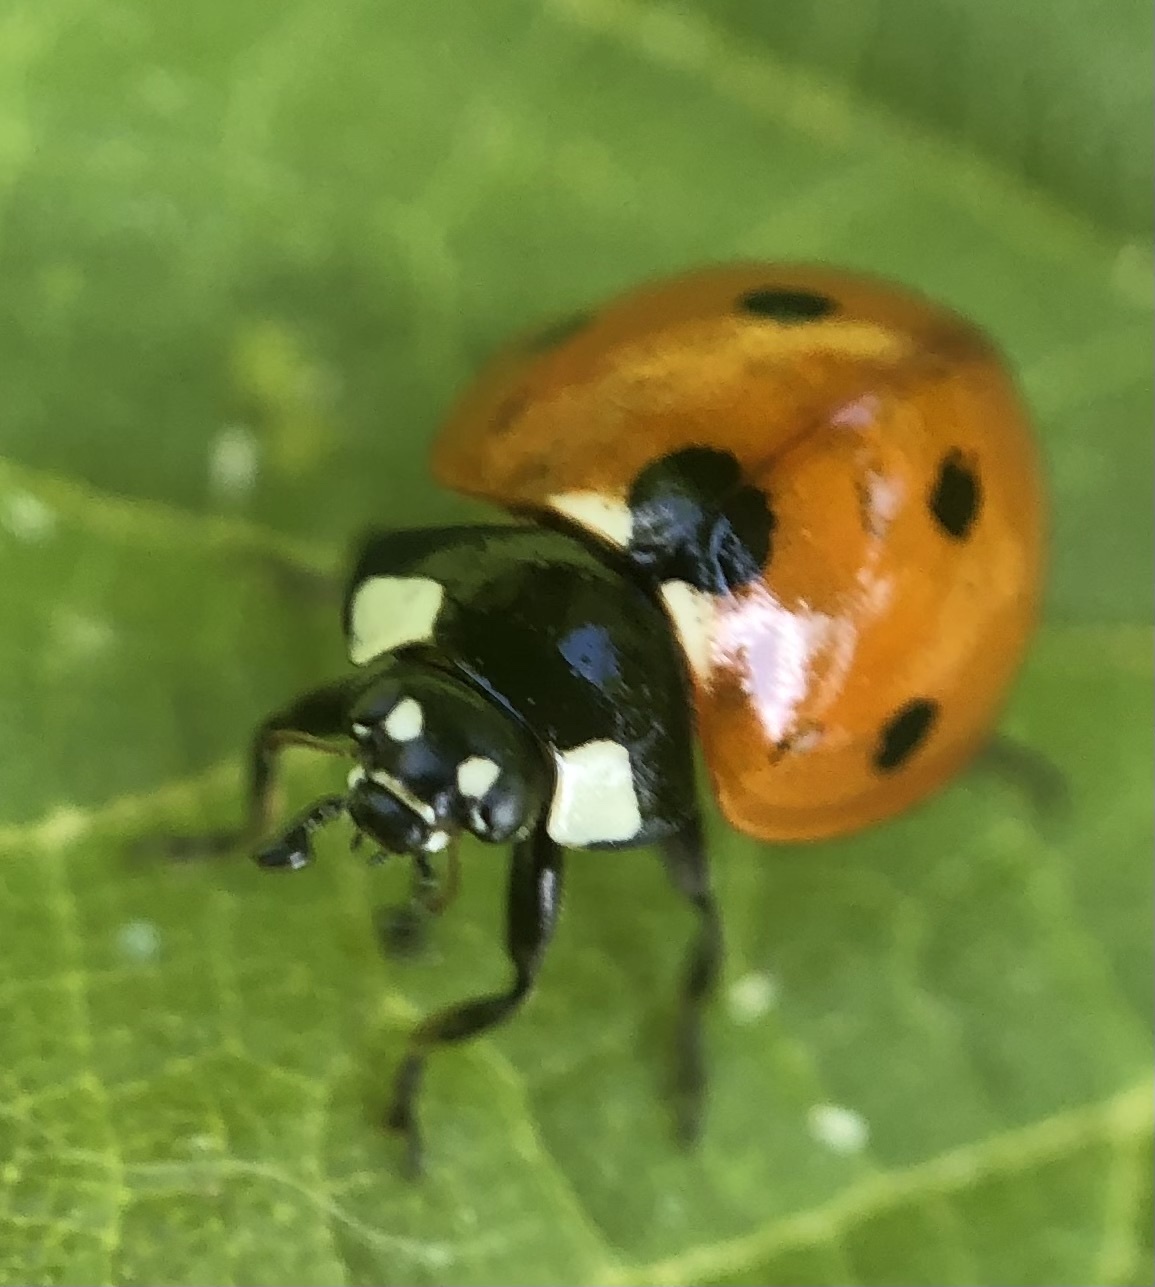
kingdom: Animalia
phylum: Arthropoda
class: Insecta
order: Coleoptera
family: Coccinellidae
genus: Coccinella
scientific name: Coccinella septempunctata
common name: Sevenspotted lady beetle
